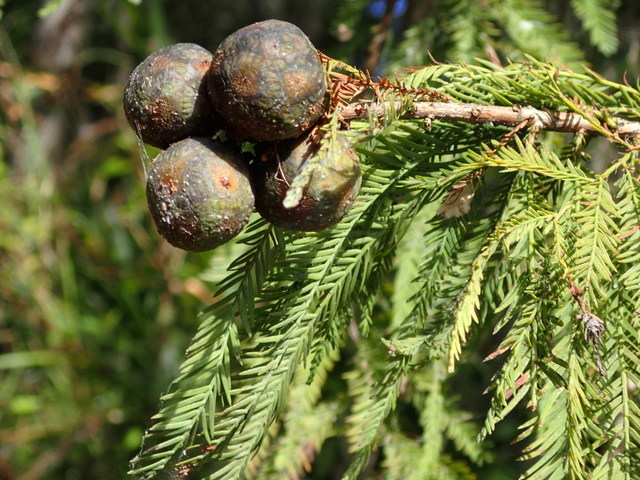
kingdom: Plantae
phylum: Tracheophyta
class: Pinopsida
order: Pinales
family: Cupressaceae
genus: Taxodium
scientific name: Taxodium distichum
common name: Bald cypress
